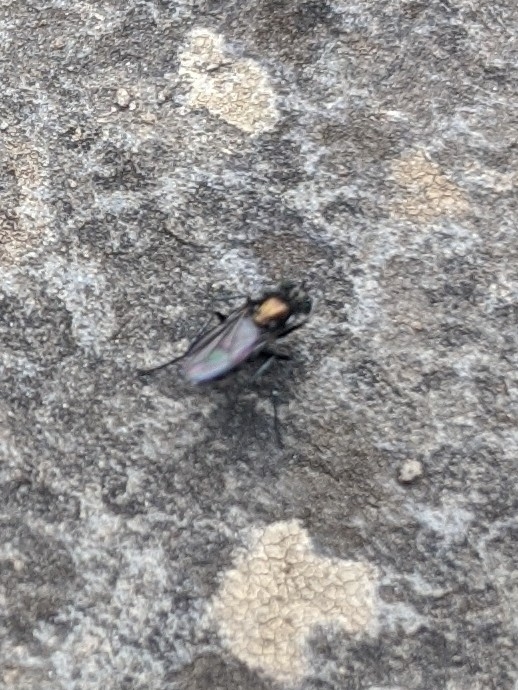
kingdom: Animalia
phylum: Arthropoda
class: Insecta
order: Diptera
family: Dolichopodidae
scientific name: Dolichopodidae
